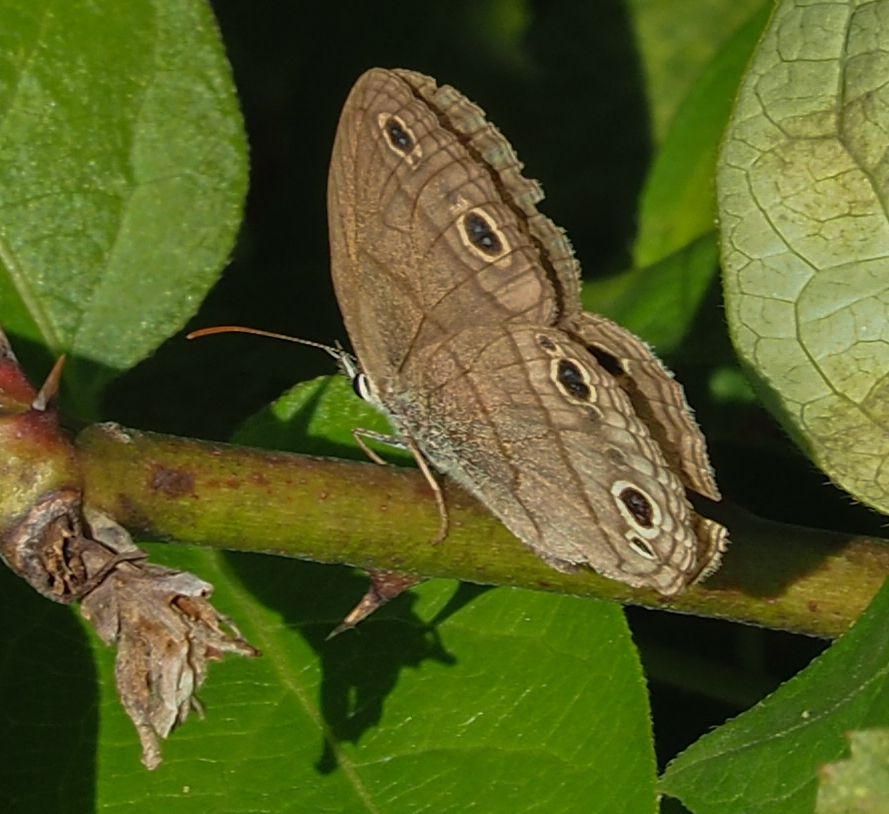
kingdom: Animalia
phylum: Arthropoda
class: Insecta
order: Lepidoptera
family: Nymphalidae
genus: Euptychia
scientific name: Euptychia cymela
